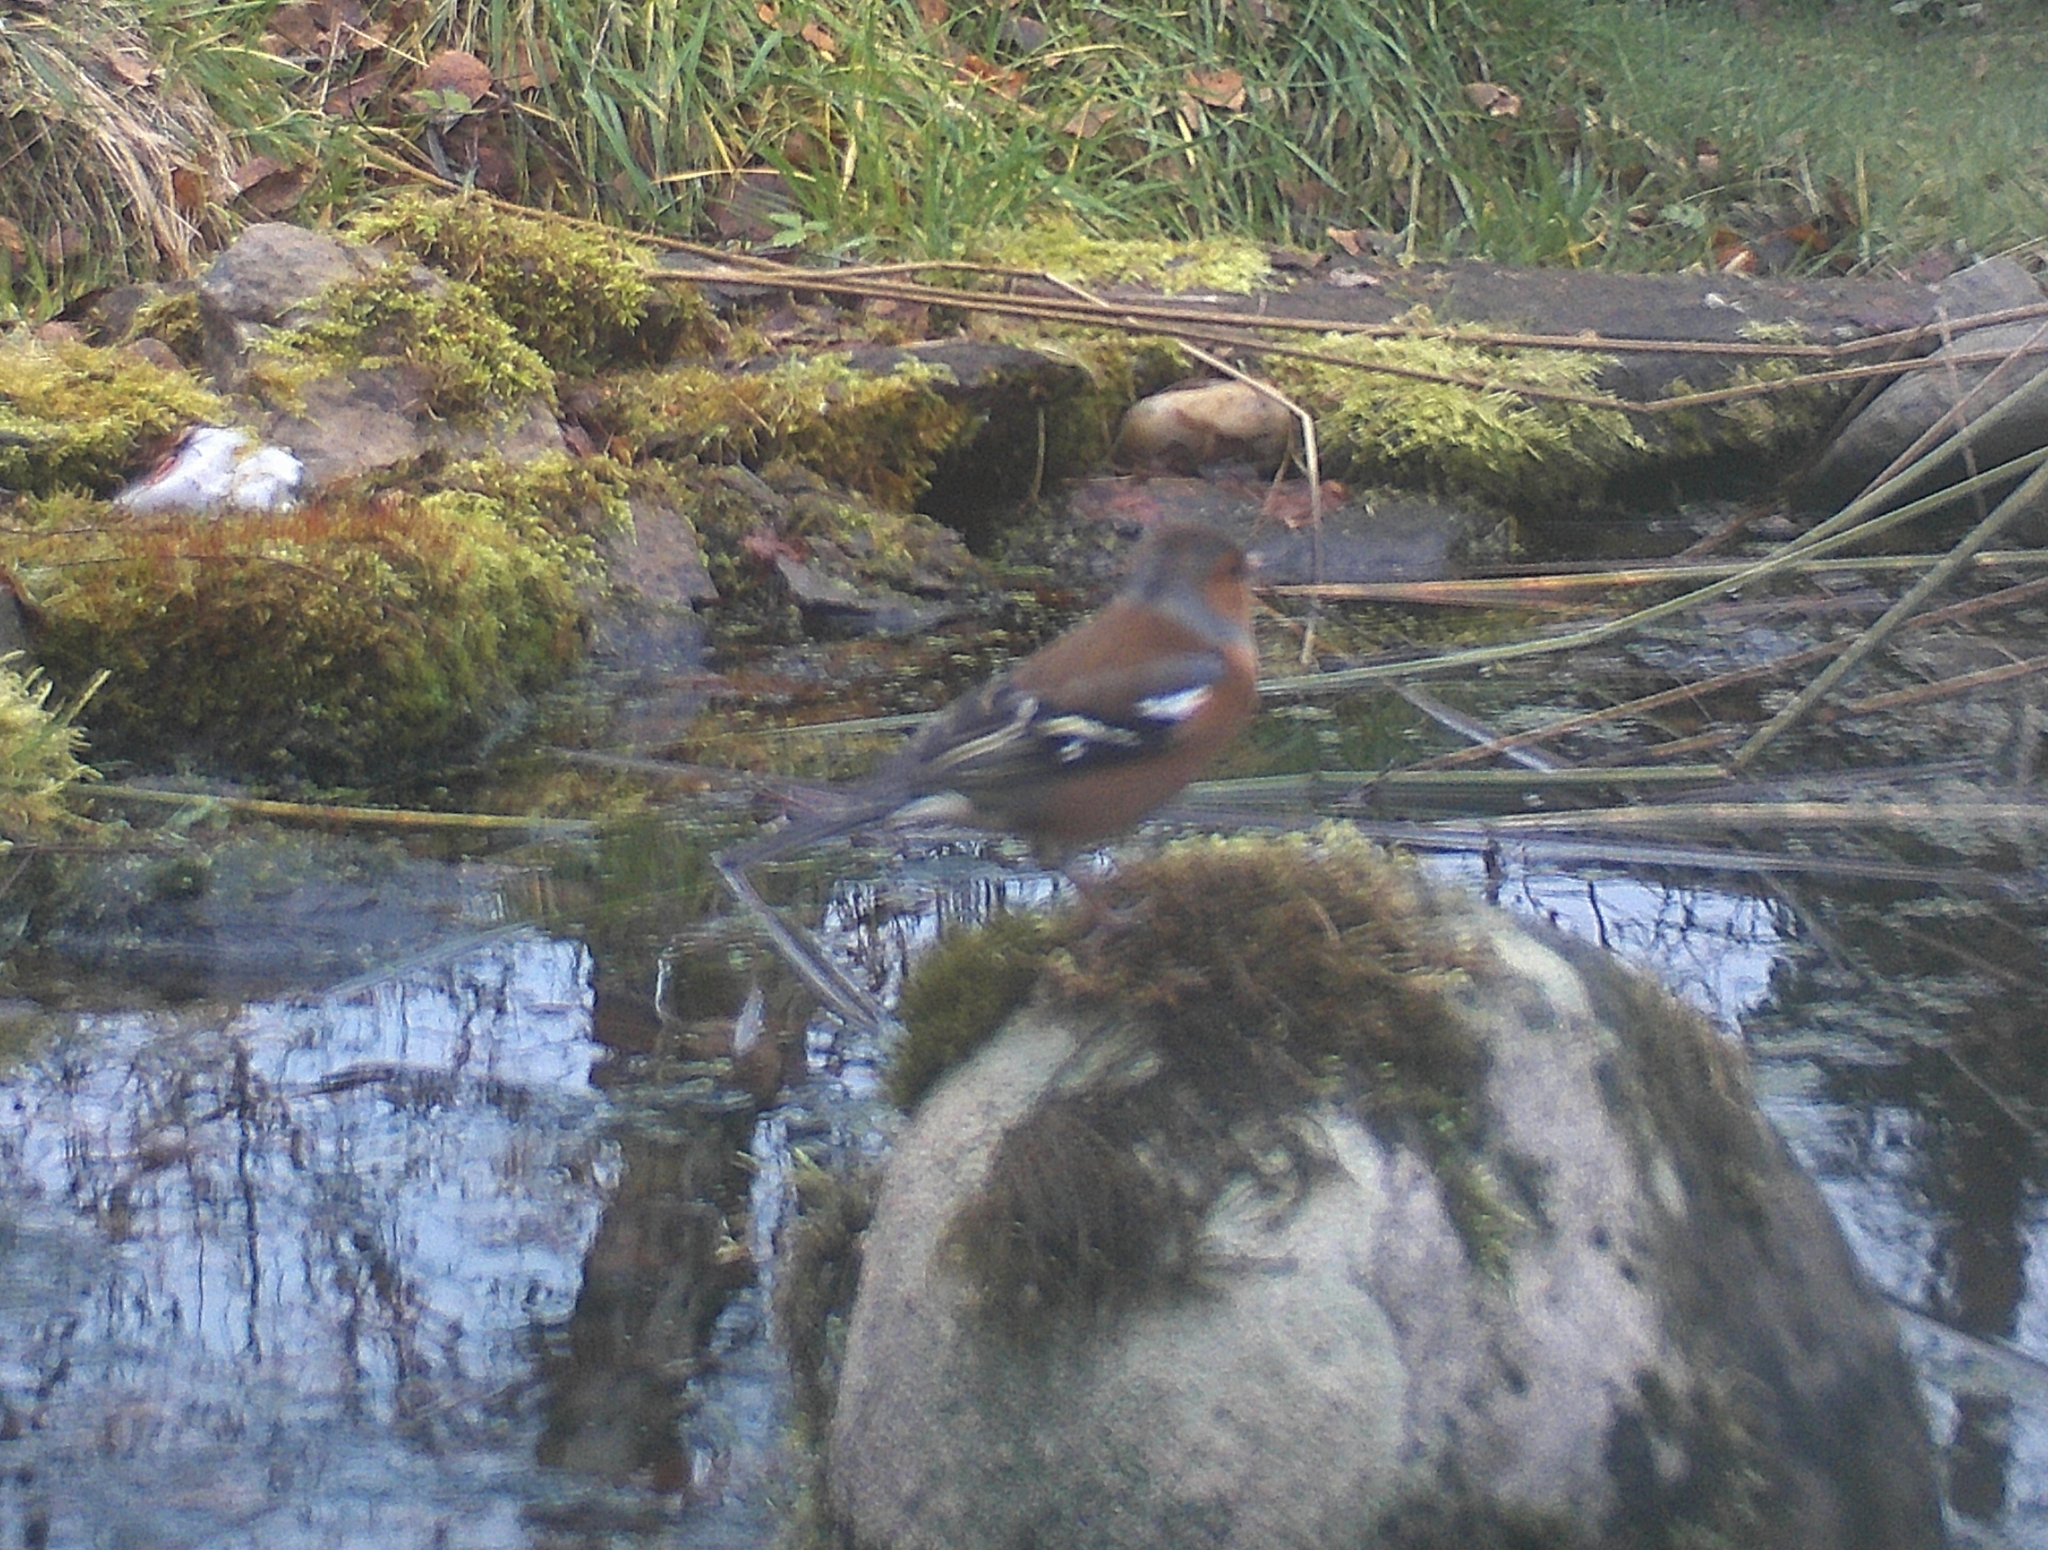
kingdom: Animalia
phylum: Chordata
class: Aves
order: Passeriformes
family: Fringillidae
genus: Fringilla
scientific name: Fringilla coelebs
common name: Common chaffinch
